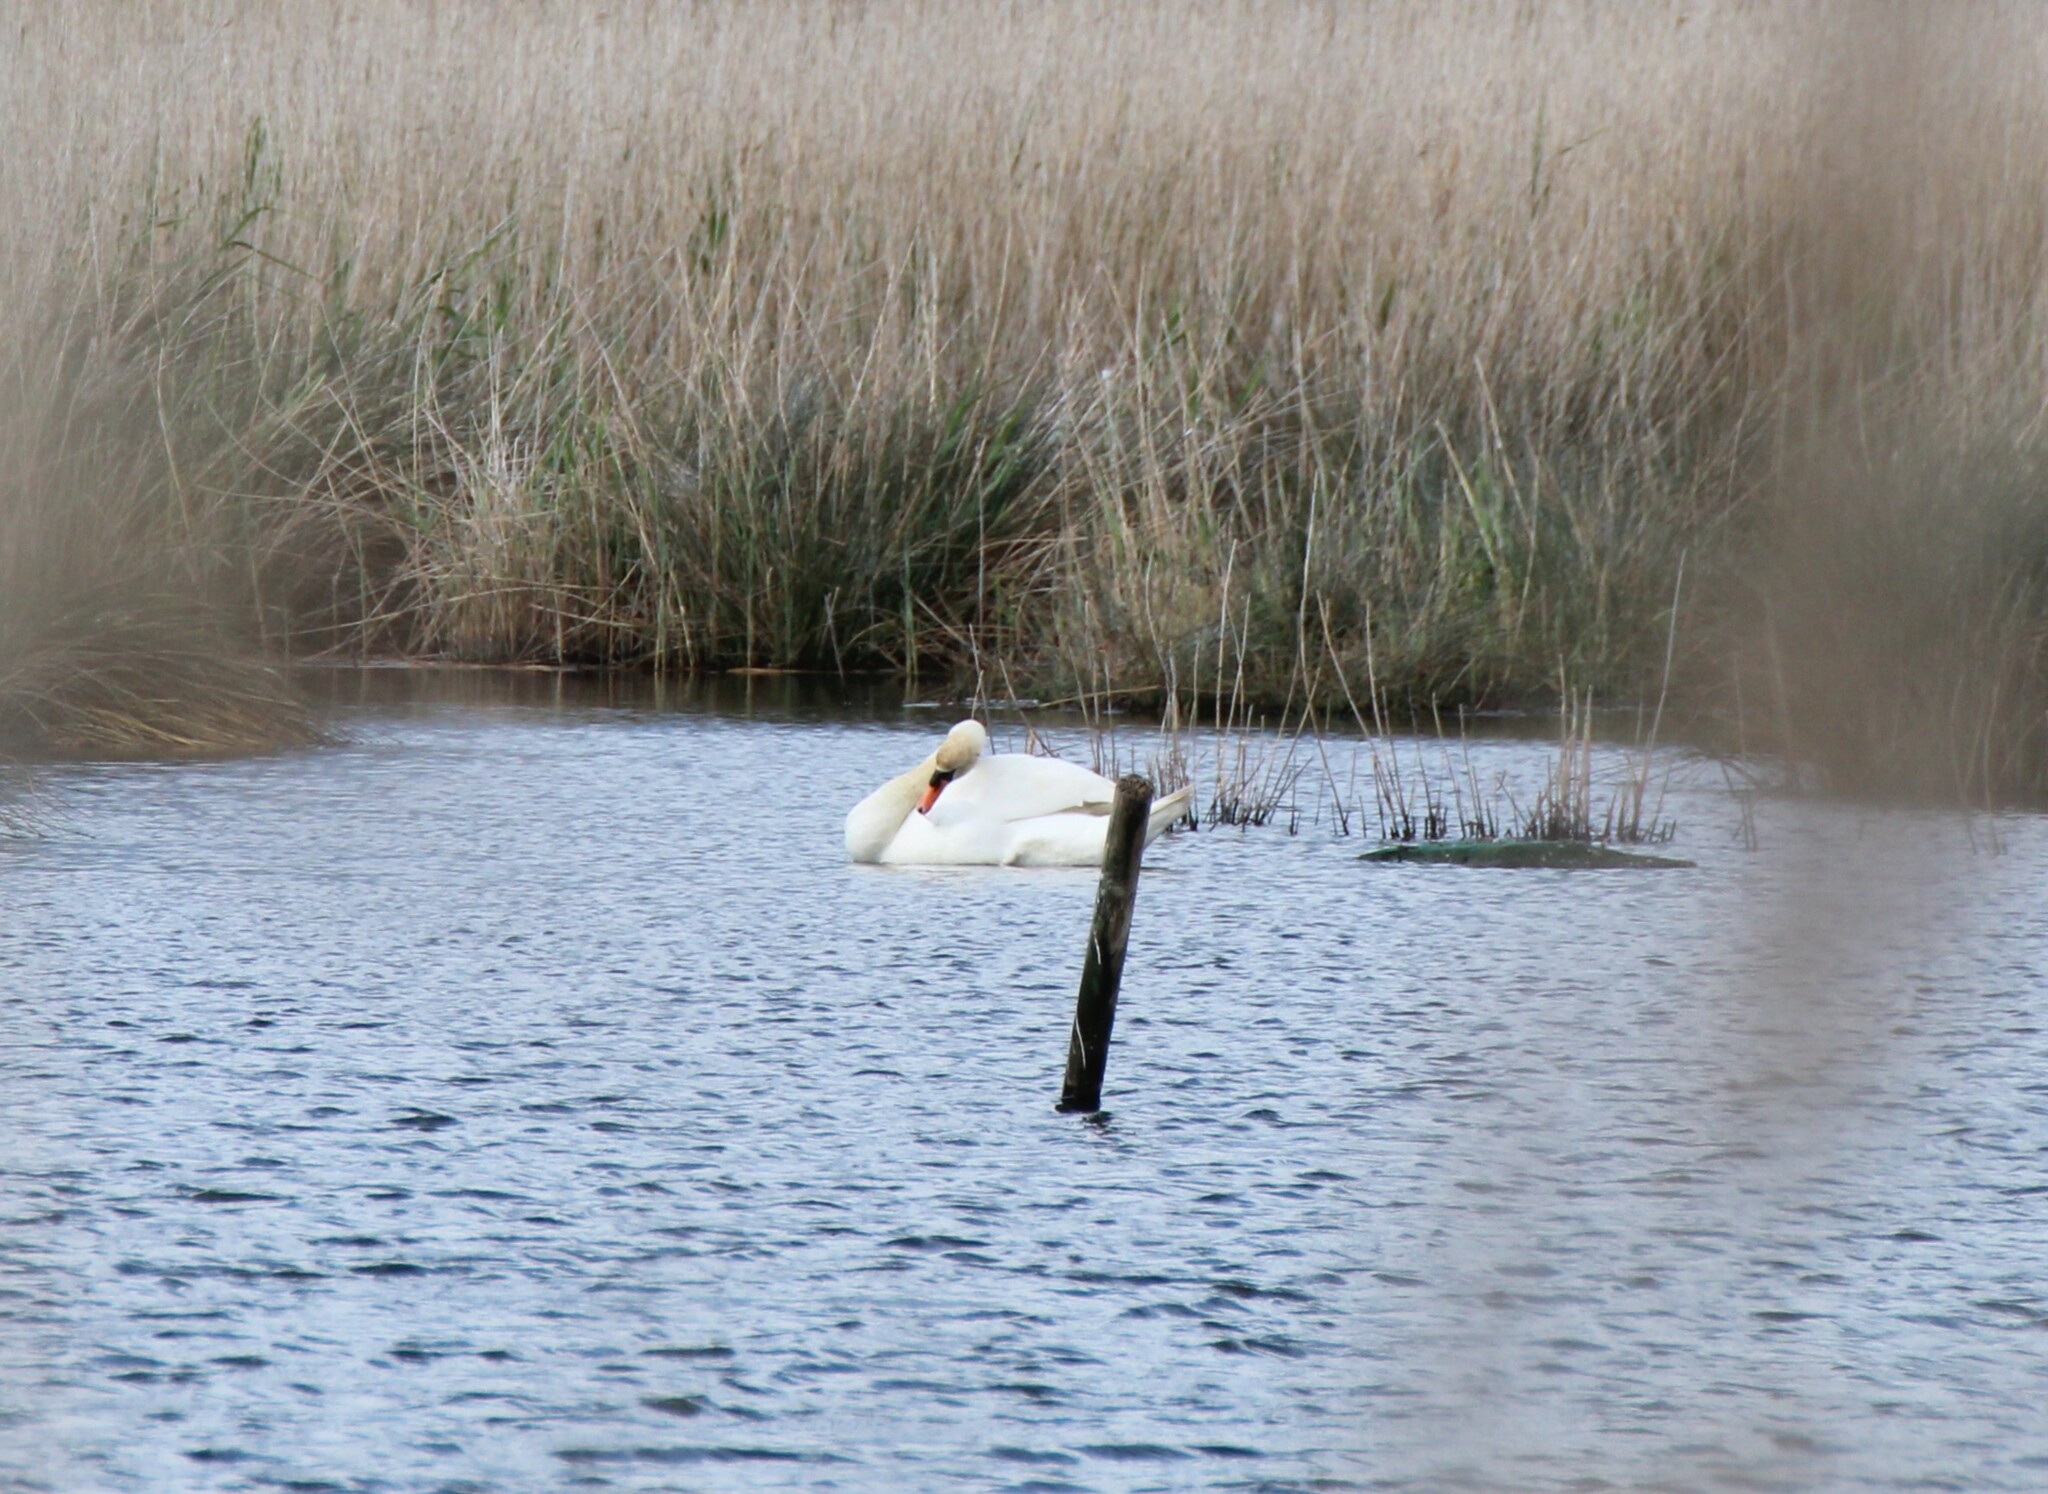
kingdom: Animalia
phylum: Chordata
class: Aves
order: Anseriformes
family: Anatidae
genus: Cygnus
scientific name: Cygnus olor
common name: Mute swan
